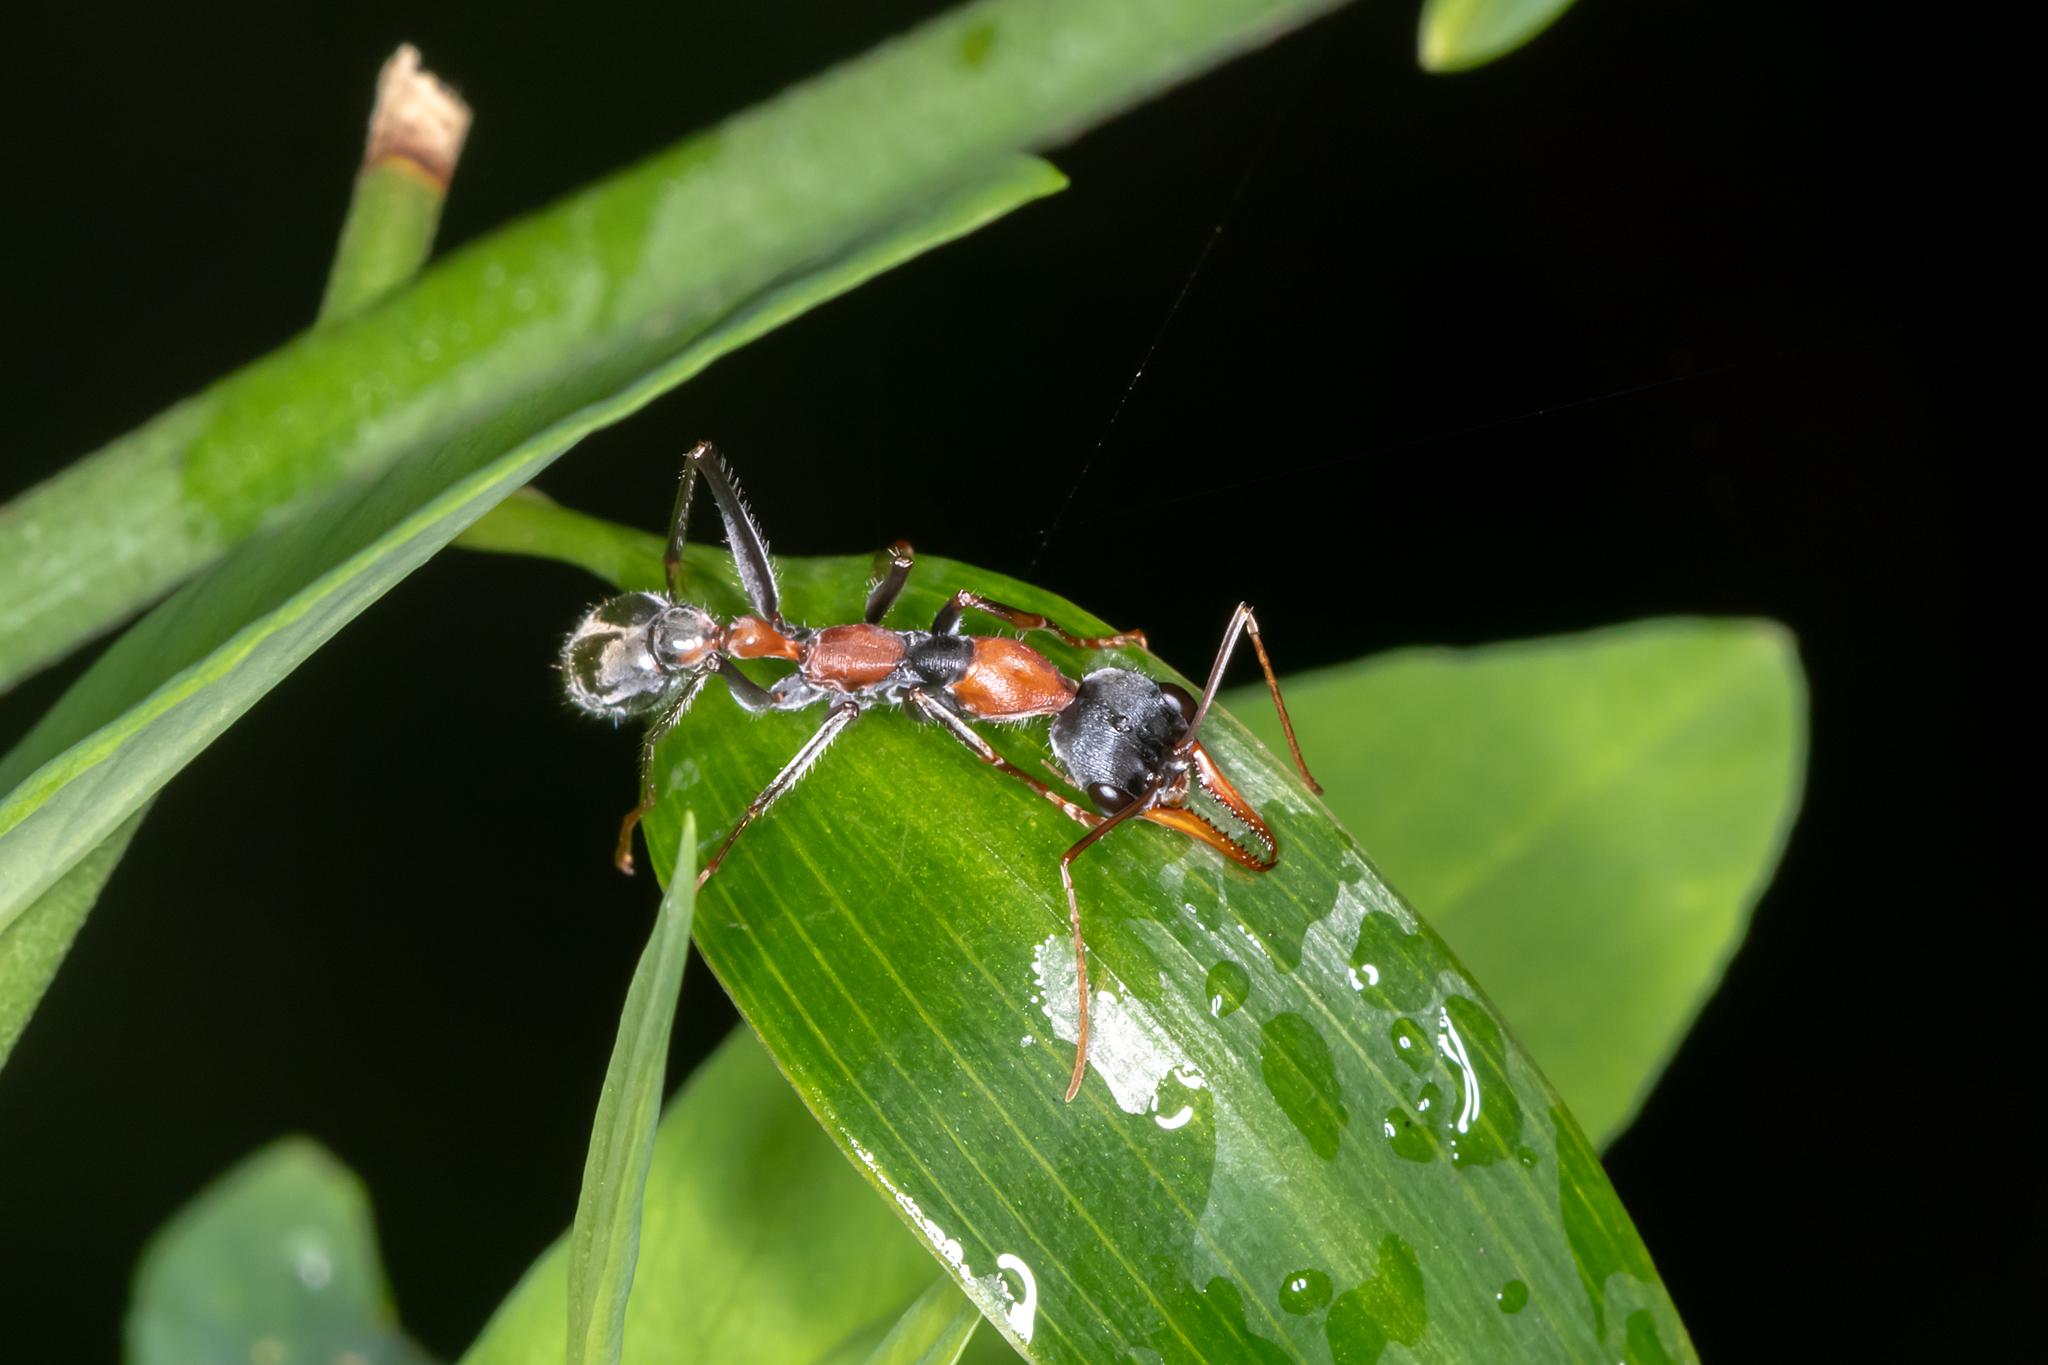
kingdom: Animalia
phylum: Arthropoda
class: Insecta
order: Hymenoptera
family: Formicidae
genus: Myrmecia
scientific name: Myrmecia nigrocincta
